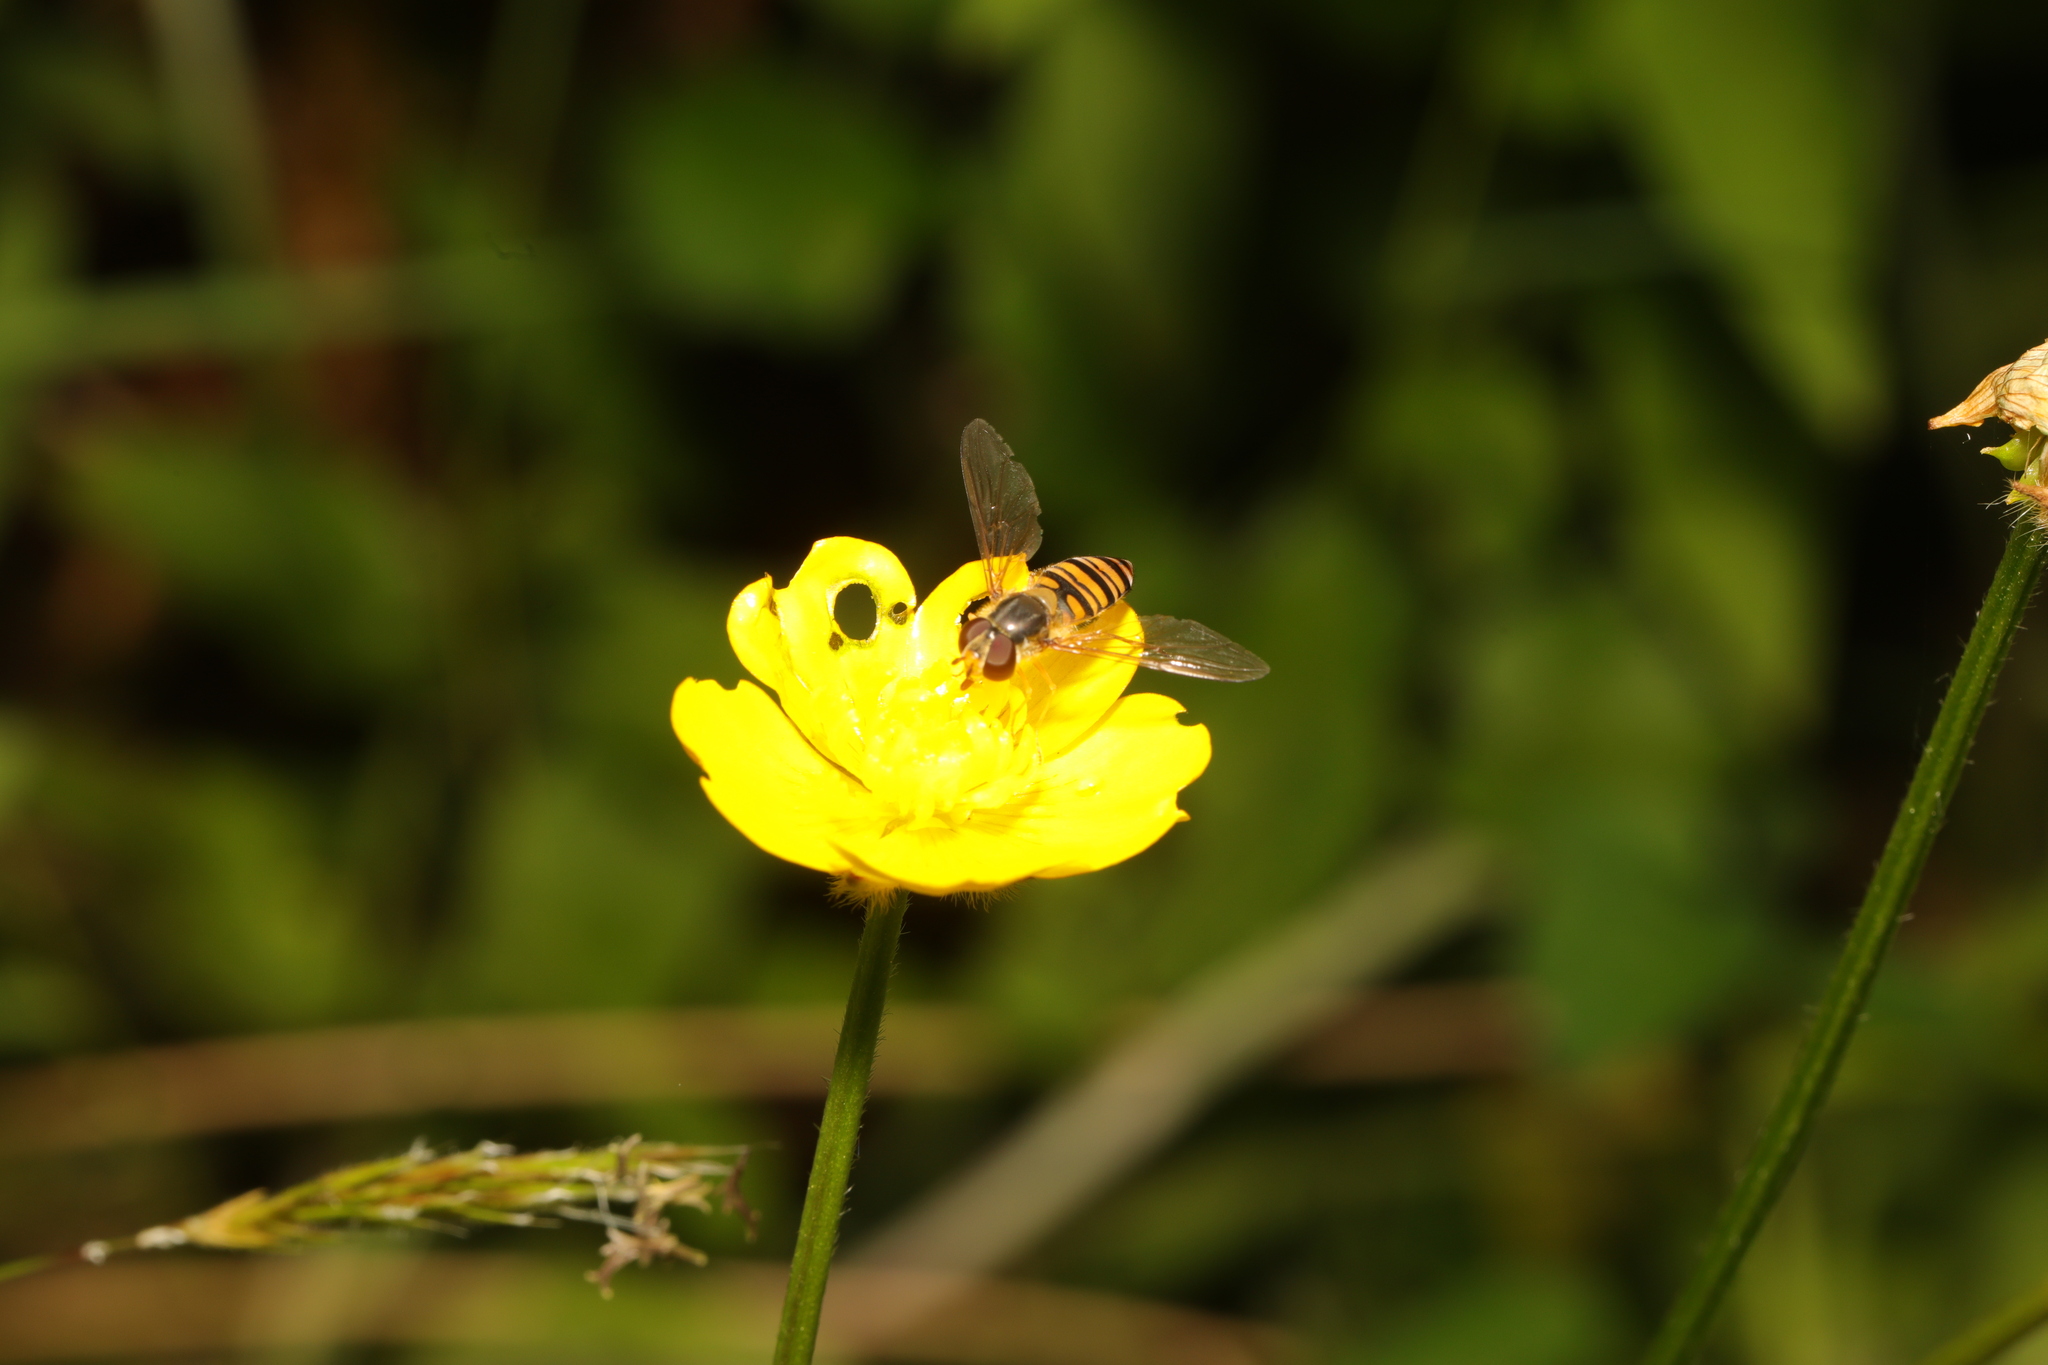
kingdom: Animalia
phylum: Arthropoda
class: Insecta
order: Diptera
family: Syrphidae
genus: Episyrphus
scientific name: Episyrphus balteatus
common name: Marmalade hoverfly
